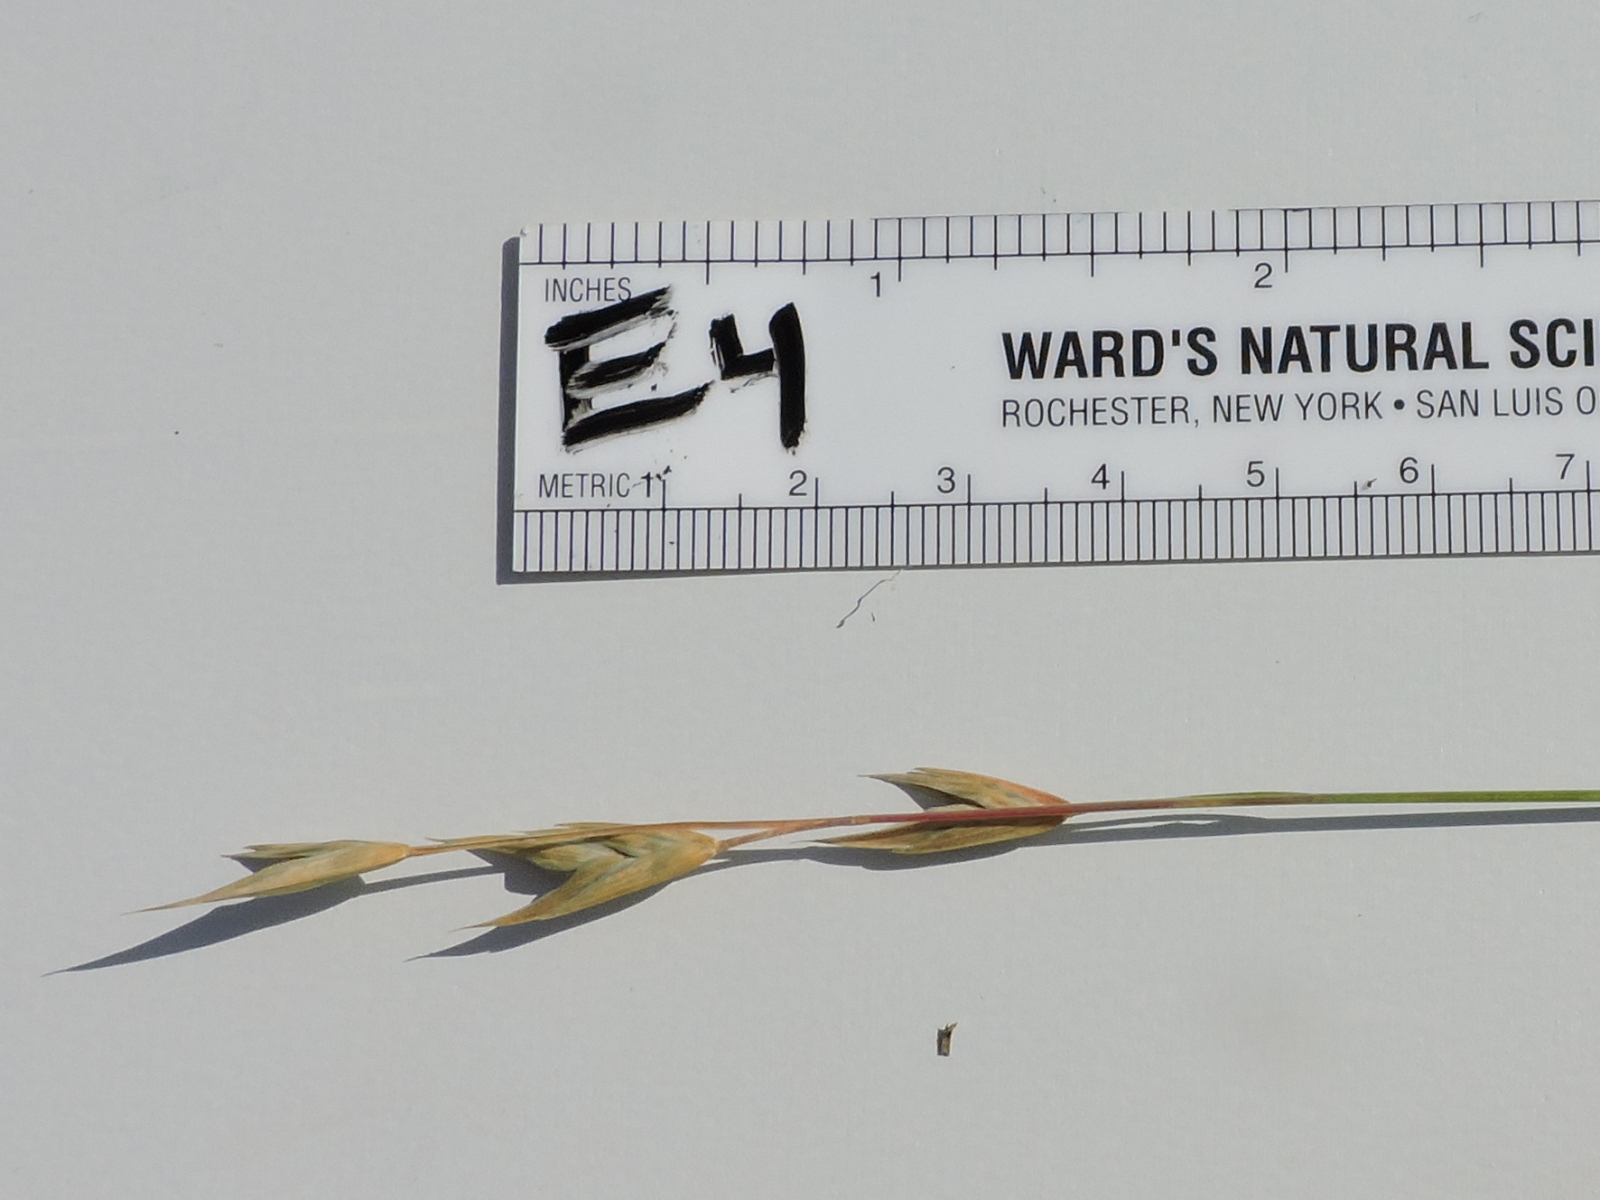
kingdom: Plantae
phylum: Tracheophyta
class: Liliopsida
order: Poales
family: Poaceae
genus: Bromus
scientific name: Bromus catharticus
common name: Rescuegrass
